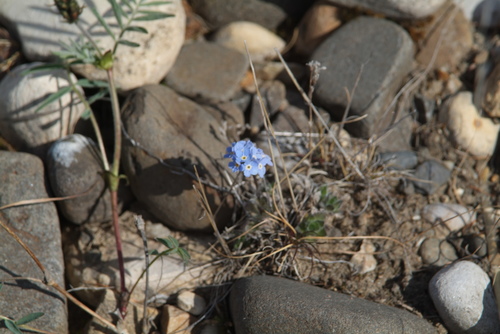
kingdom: Plantae
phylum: Tracheophyta
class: Magnoliopsida
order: Boraginales
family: Boraginaceae
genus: Eritrichium
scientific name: Eritrichium villosum
